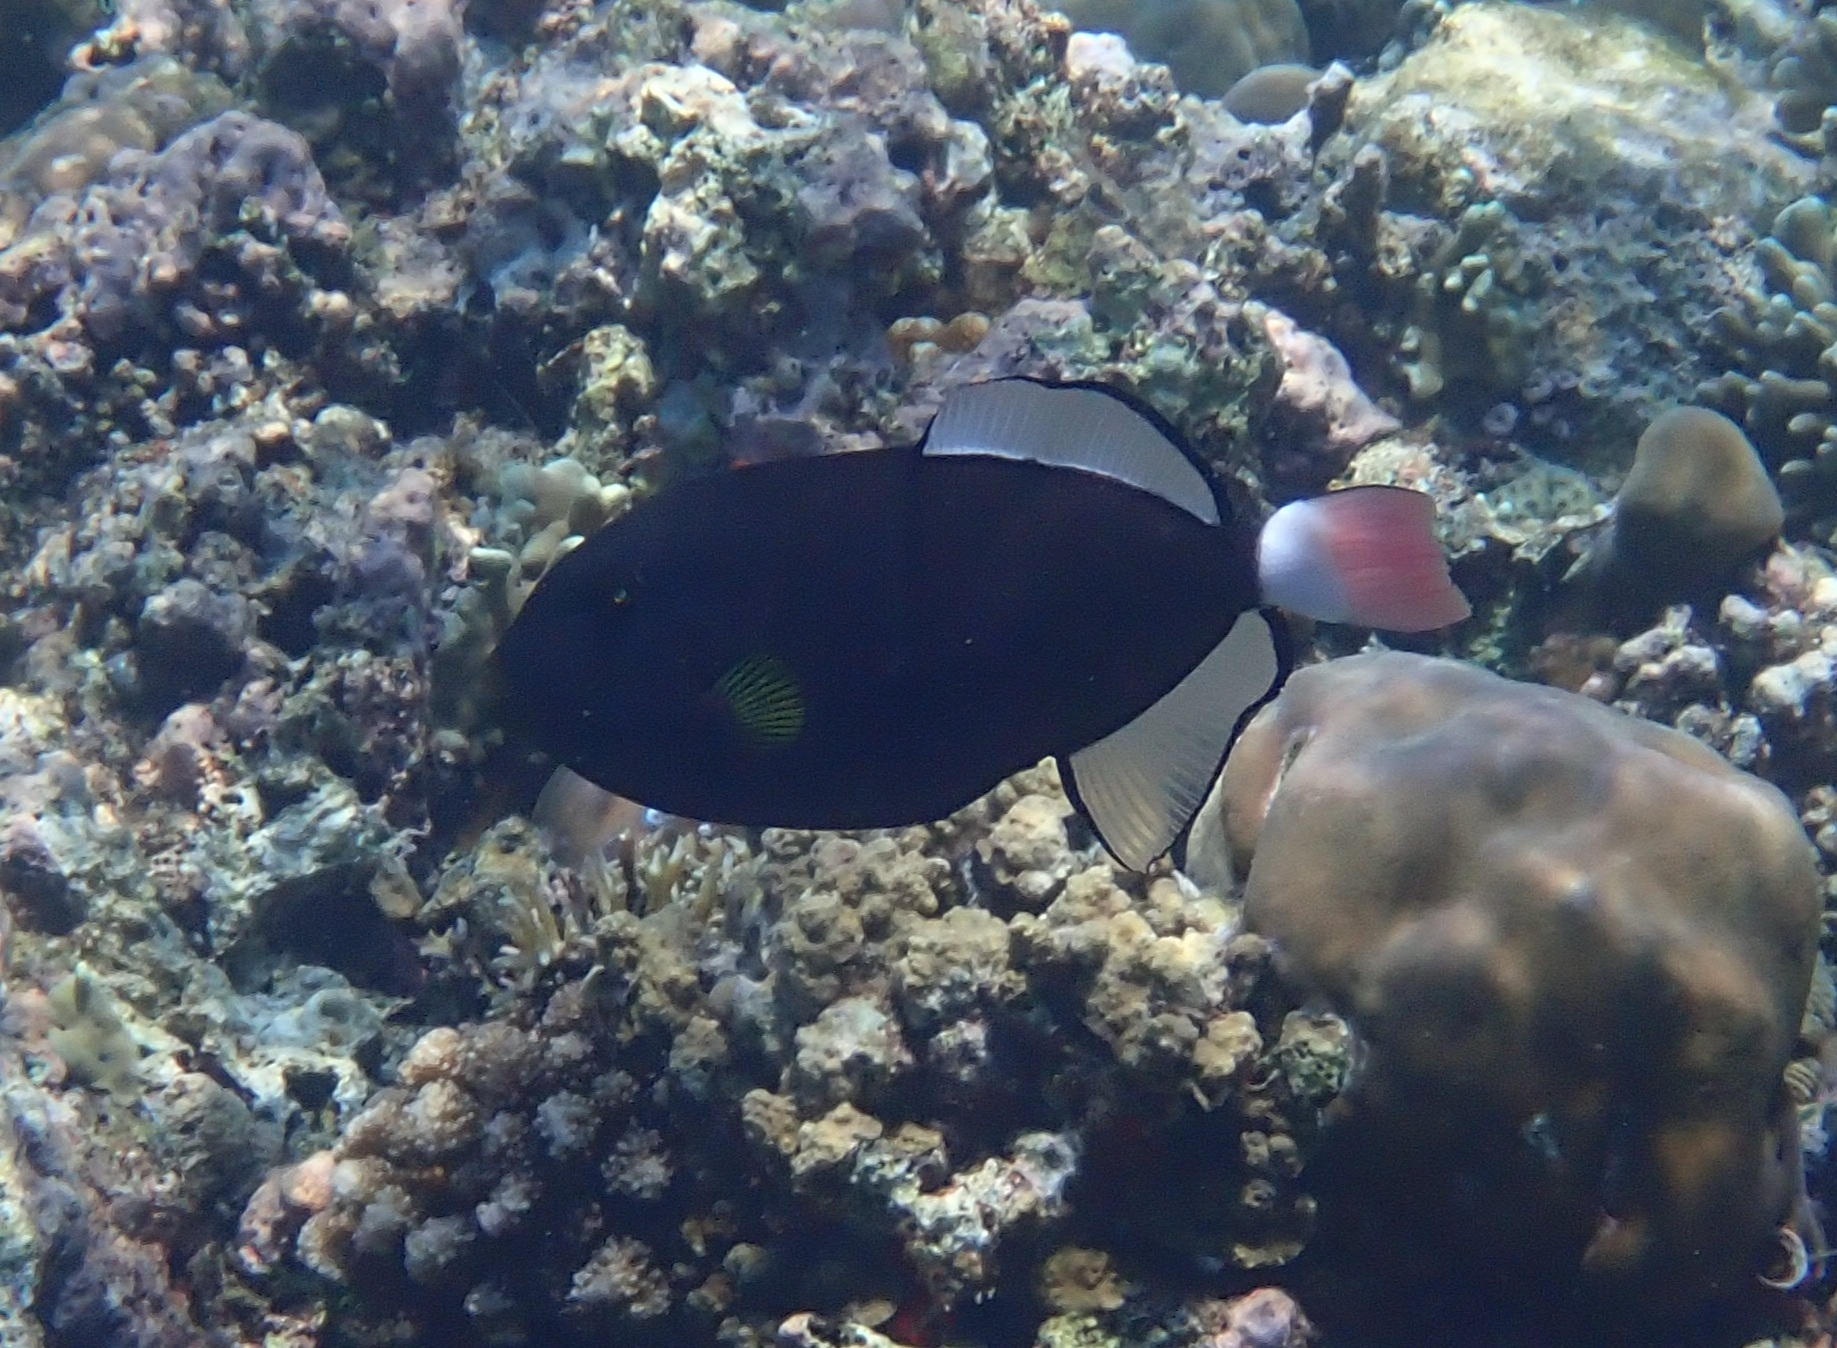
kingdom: Animalia
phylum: Chordata
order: Tetraodontiformes
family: Balistidae
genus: Melichthys
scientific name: Melichthys vidua
